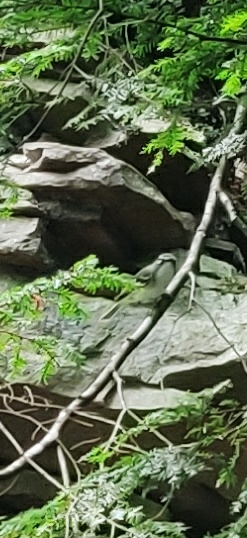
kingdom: Animalia
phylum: Chordata
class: Aves
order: Passeriformes
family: Vireonidae
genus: Vireo
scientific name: Vireo solitarius
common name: Blue-headed vireo
